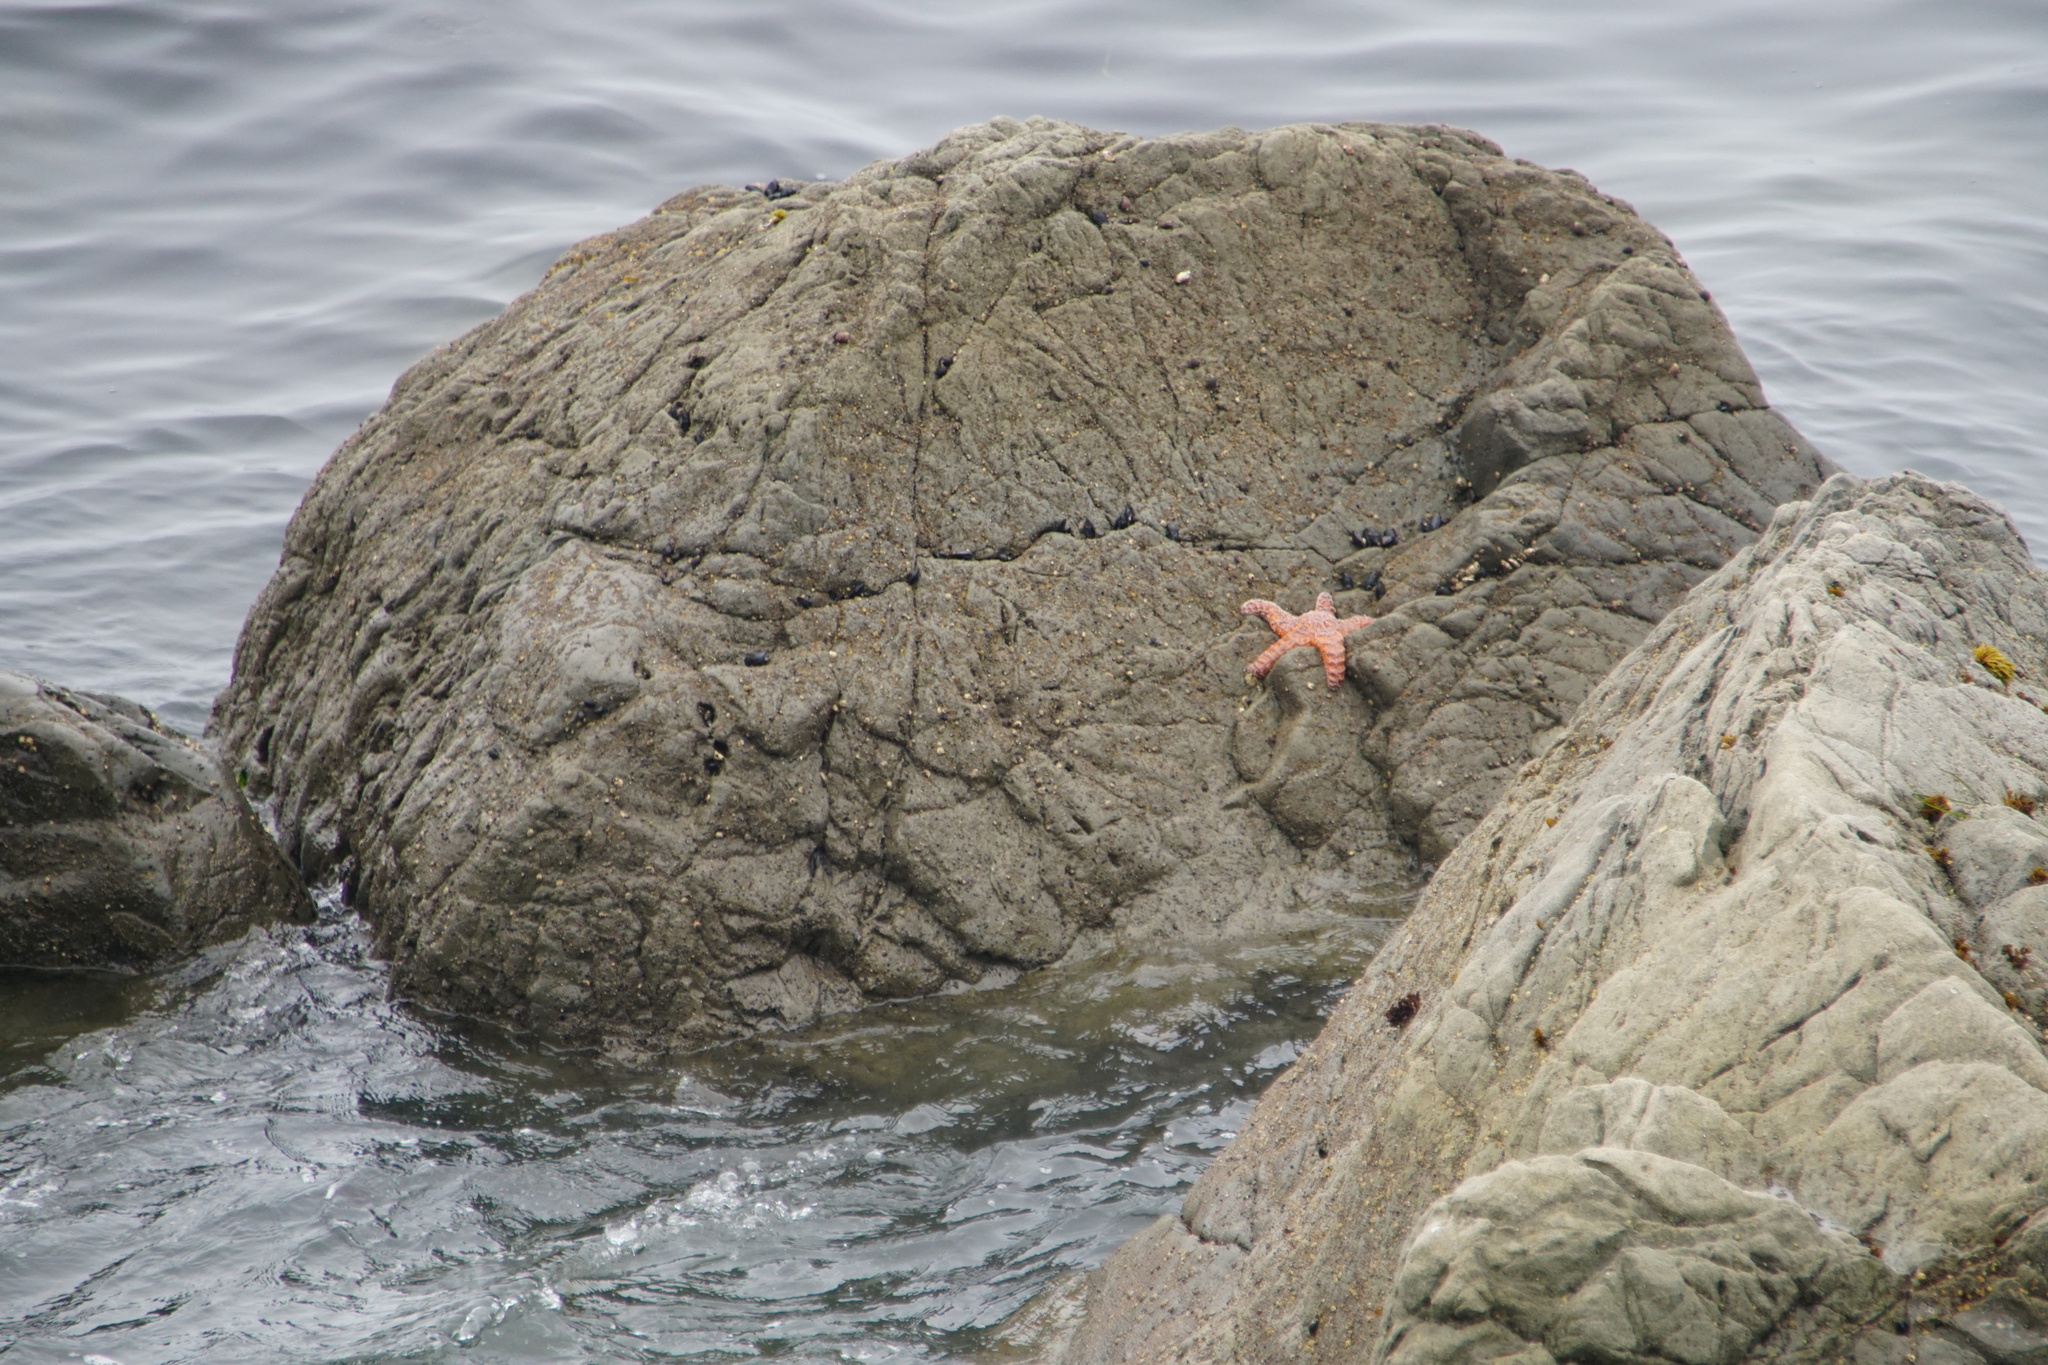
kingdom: Animalia
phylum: Echinodermata
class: Asteroidea
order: Forcipulatida
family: Asteriidae
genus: Pisaster
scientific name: Pisaster ochraceus
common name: Ochre stars
